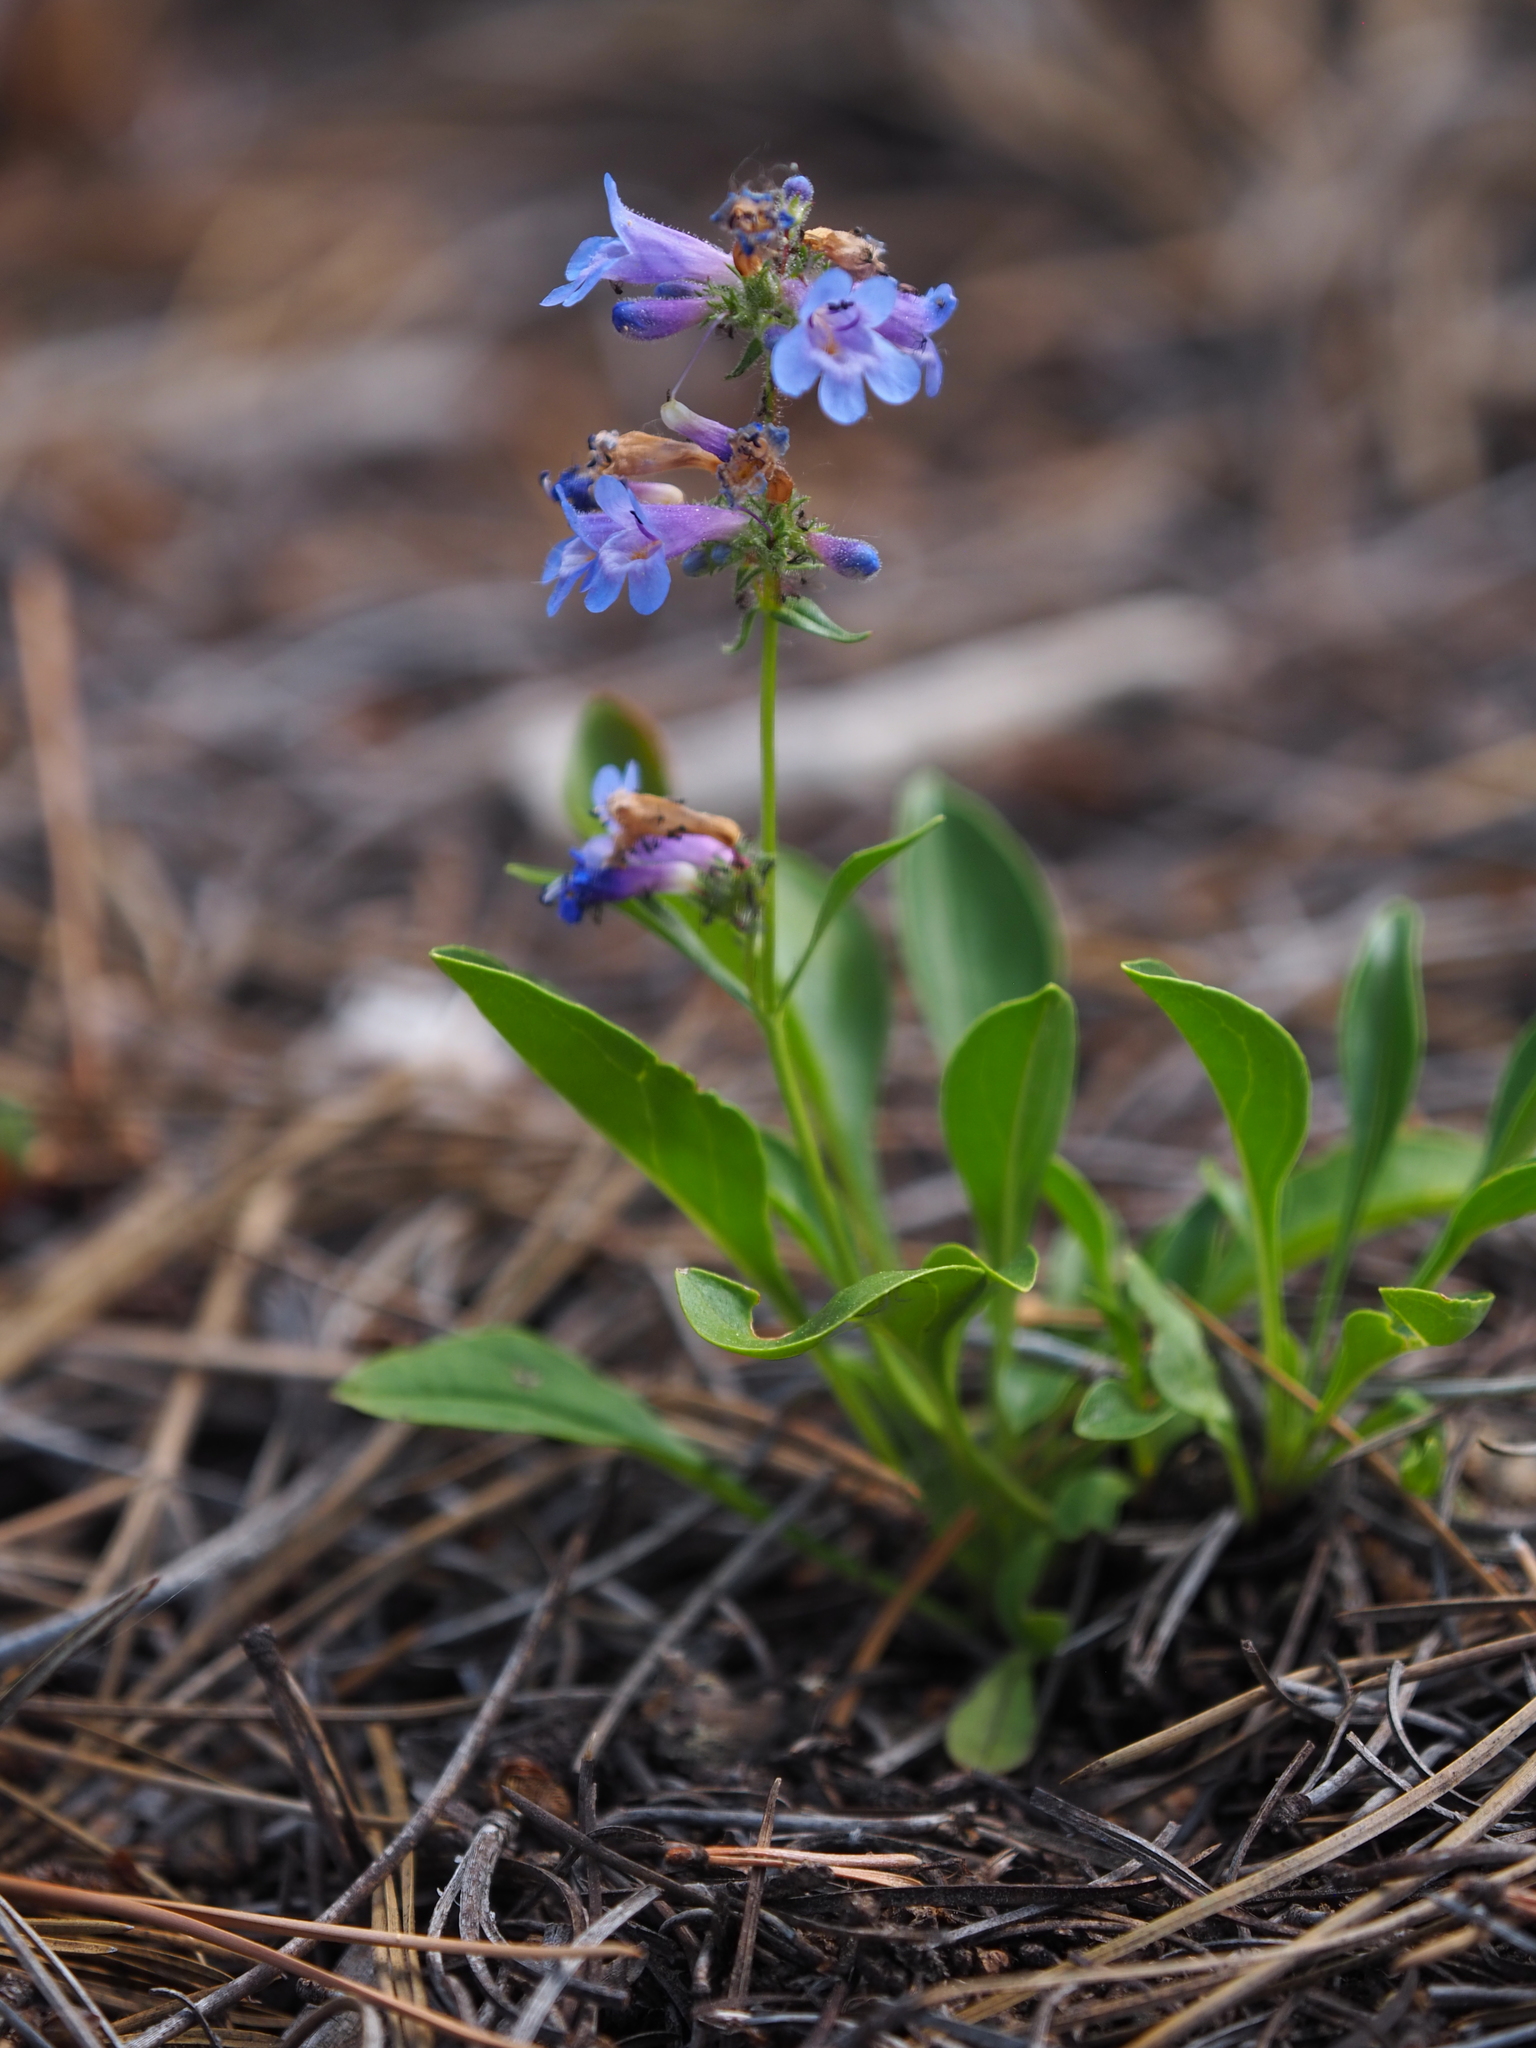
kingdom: Plantae
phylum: Tracheophyta
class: Magnoliopsida
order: Lamiales
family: Plantaginaceae
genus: Penstemon
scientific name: Penstemon virens
